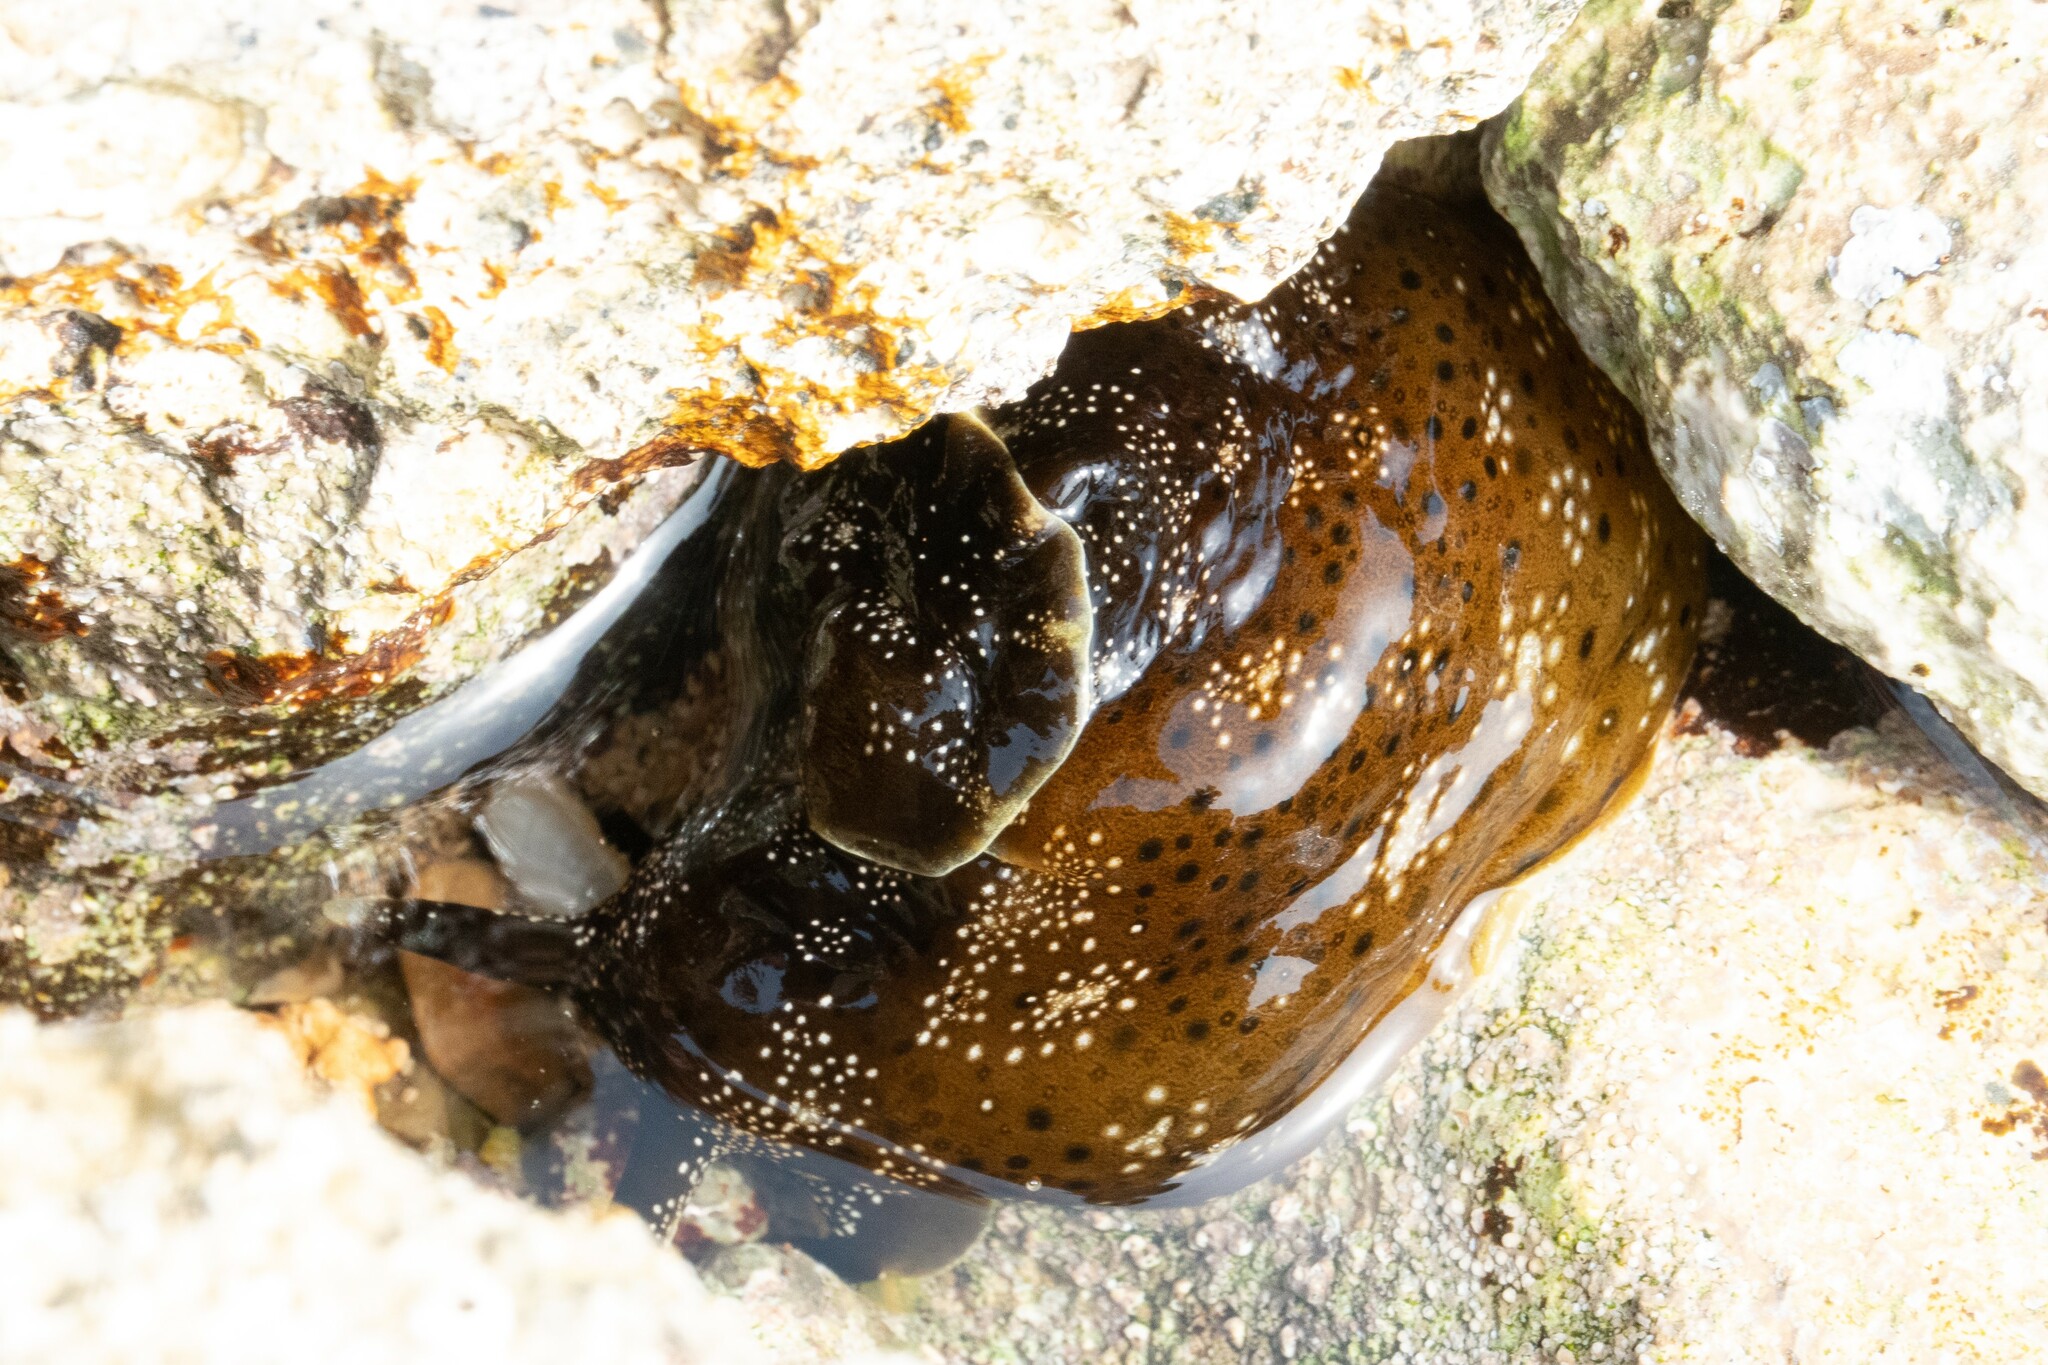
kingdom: Animalia
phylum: Mollusca
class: Gastropoda
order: Aplysiida
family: Aplysiidae
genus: Aplysia
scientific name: Aplysia punctata
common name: Common sea hare
